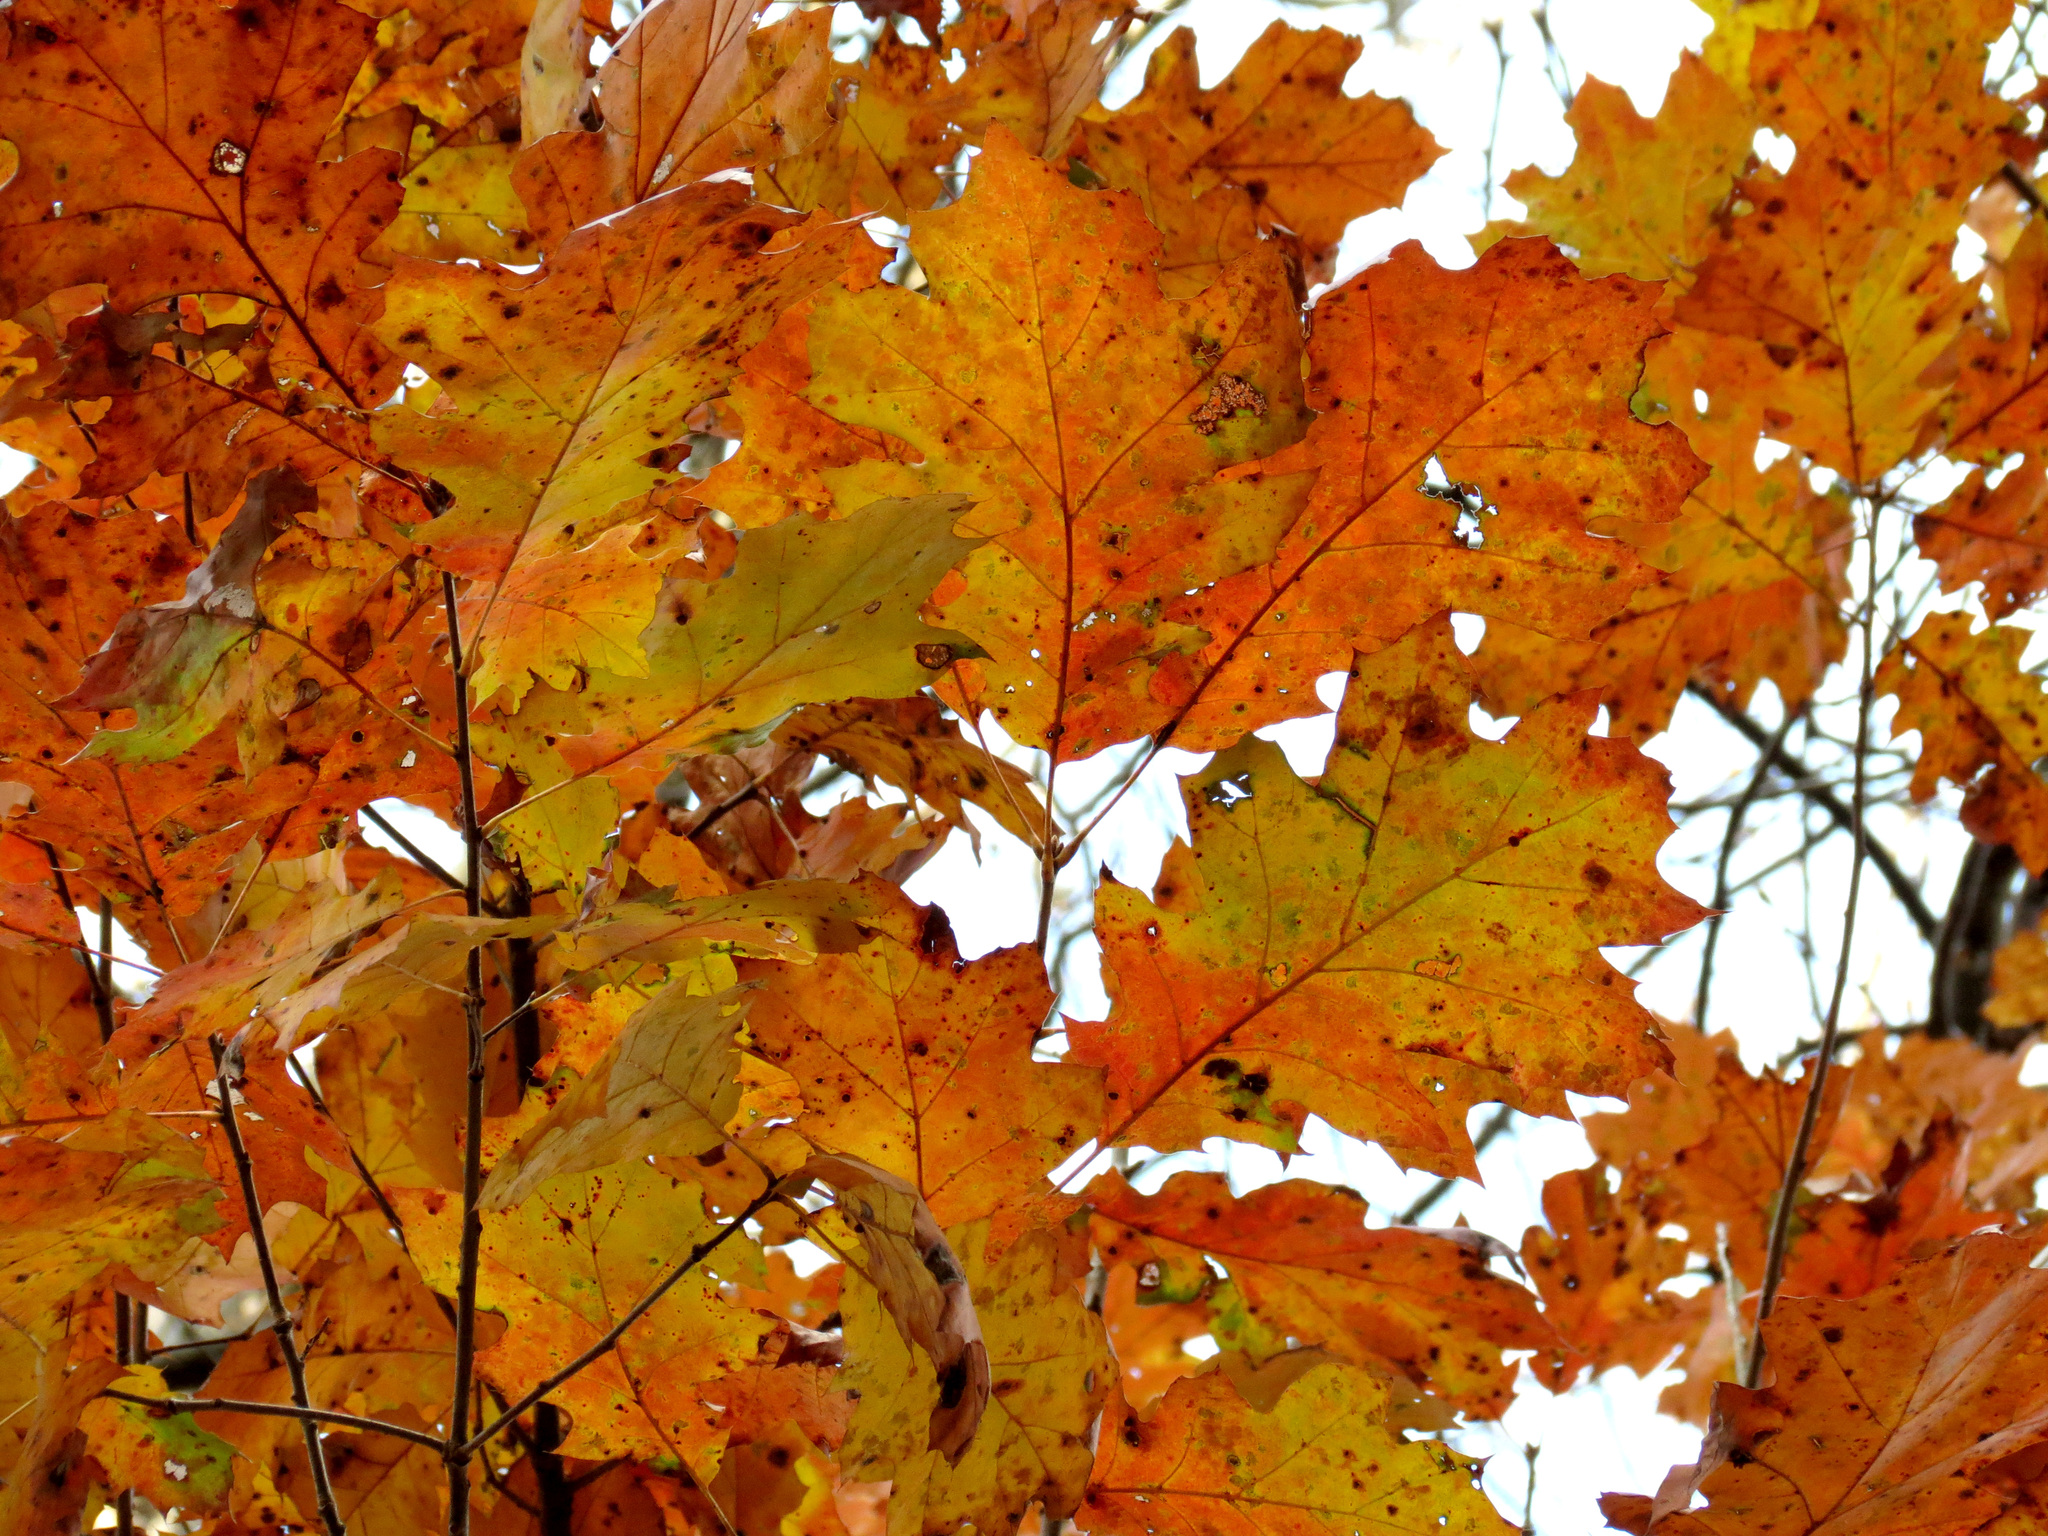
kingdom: Plantae
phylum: Tracheophyta
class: Magnoliopsida
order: Fagales
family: Fagaceae
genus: Quercus
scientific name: Quercus rubra
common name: Red oak
